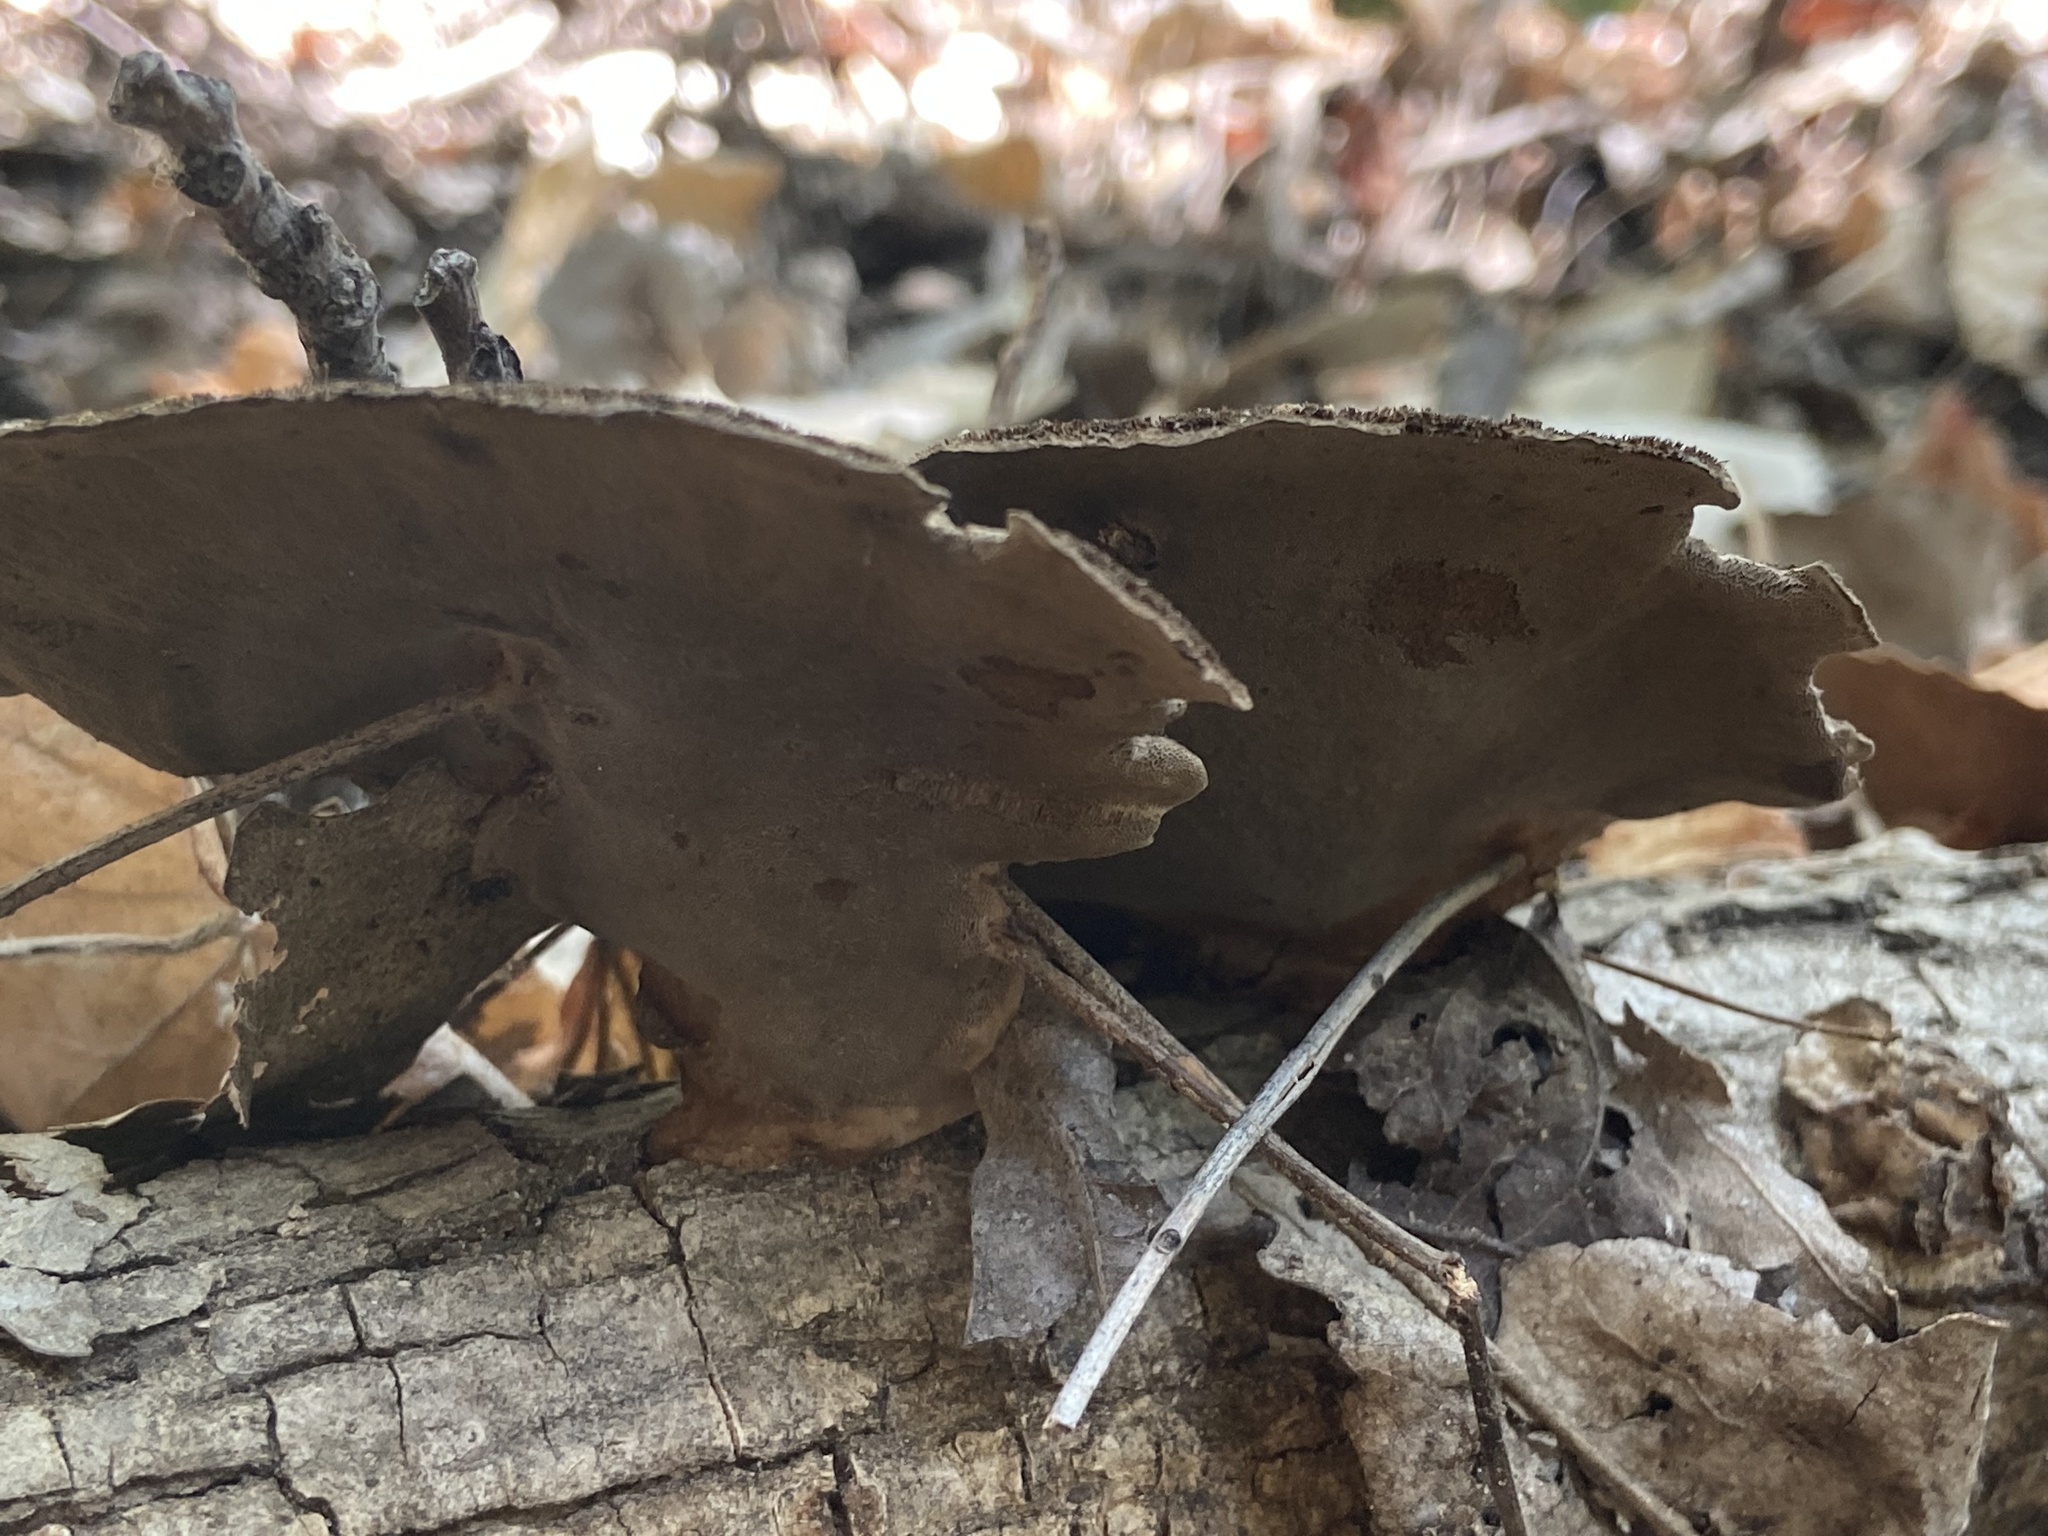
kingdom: Fungi
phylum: Basidiomycota
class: Agaricomycetes
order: Polyporales
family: Cerrenaceae
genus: Cerrena
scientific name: Cerrena hydnoides
